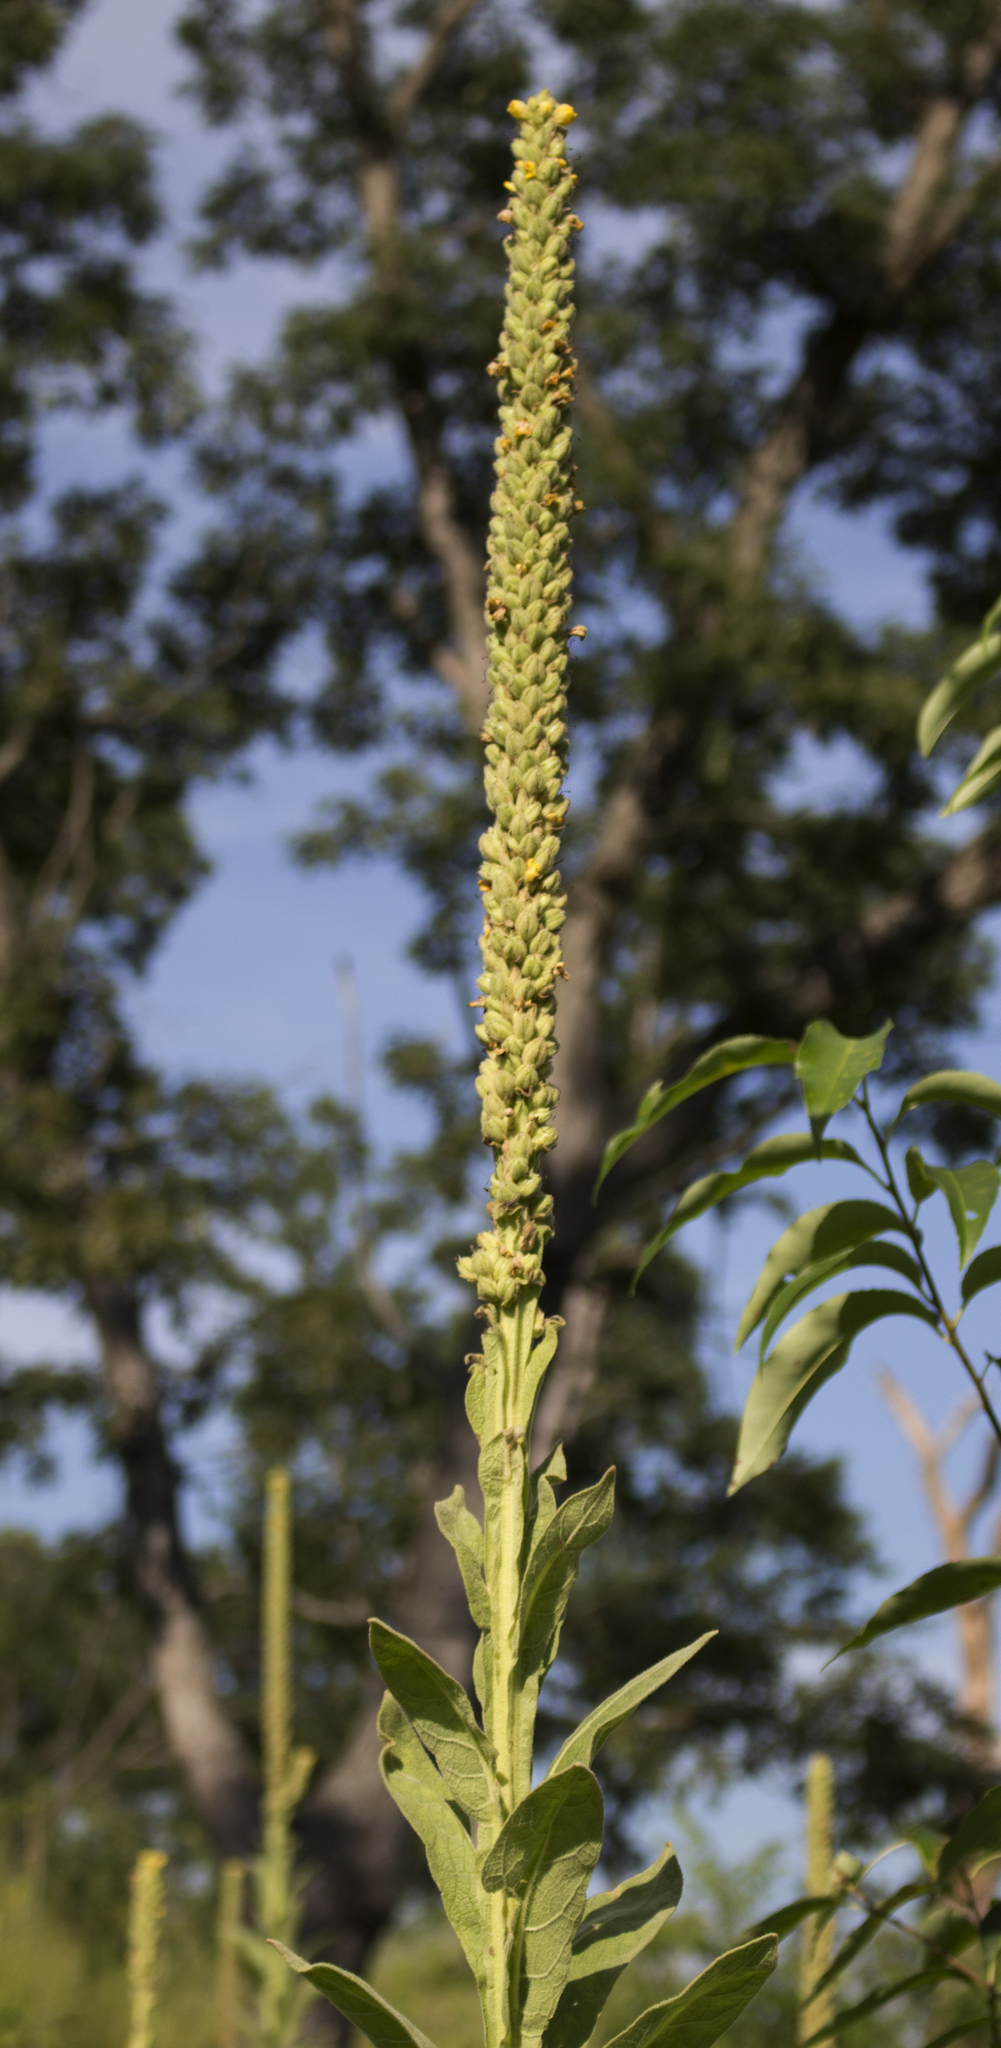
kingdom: Plantae
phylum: Tracheophyta
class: Magnoliopsida
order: Lamiales
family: Scrophulariaceae
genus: Verbascum
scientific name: Verbascum thapsus
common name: Common mullein
